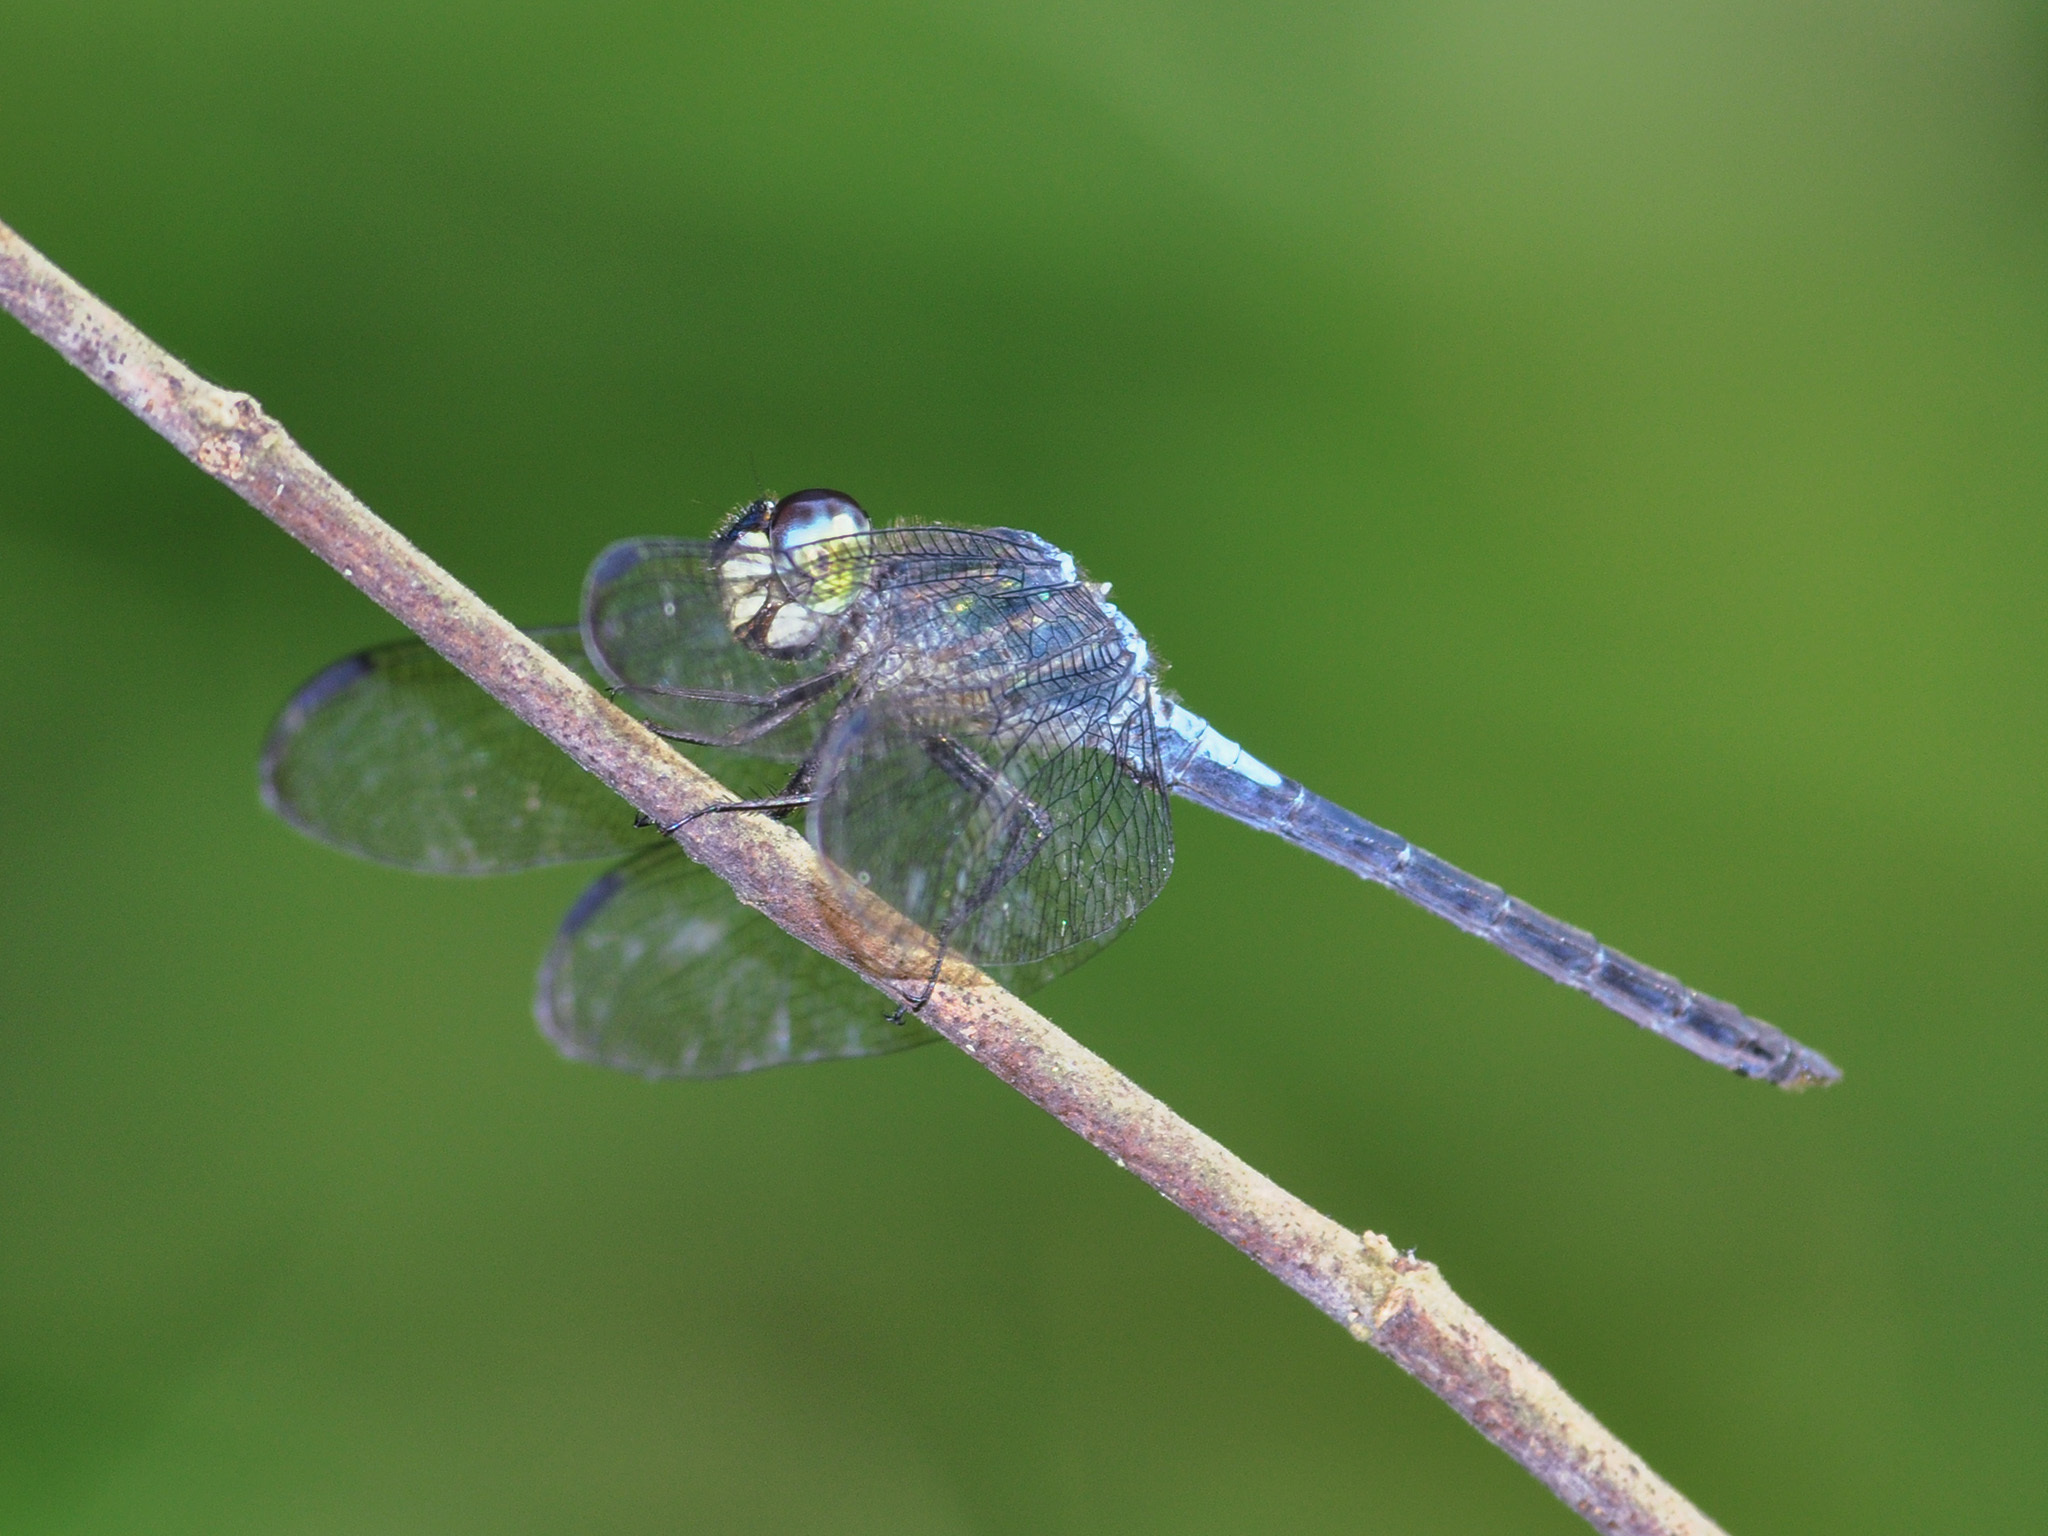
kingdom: Animalia
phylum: Arthropoda
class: Insecta
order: Odonata
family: Libellulidae
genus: Cratilla
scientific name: Cratilla lineata
